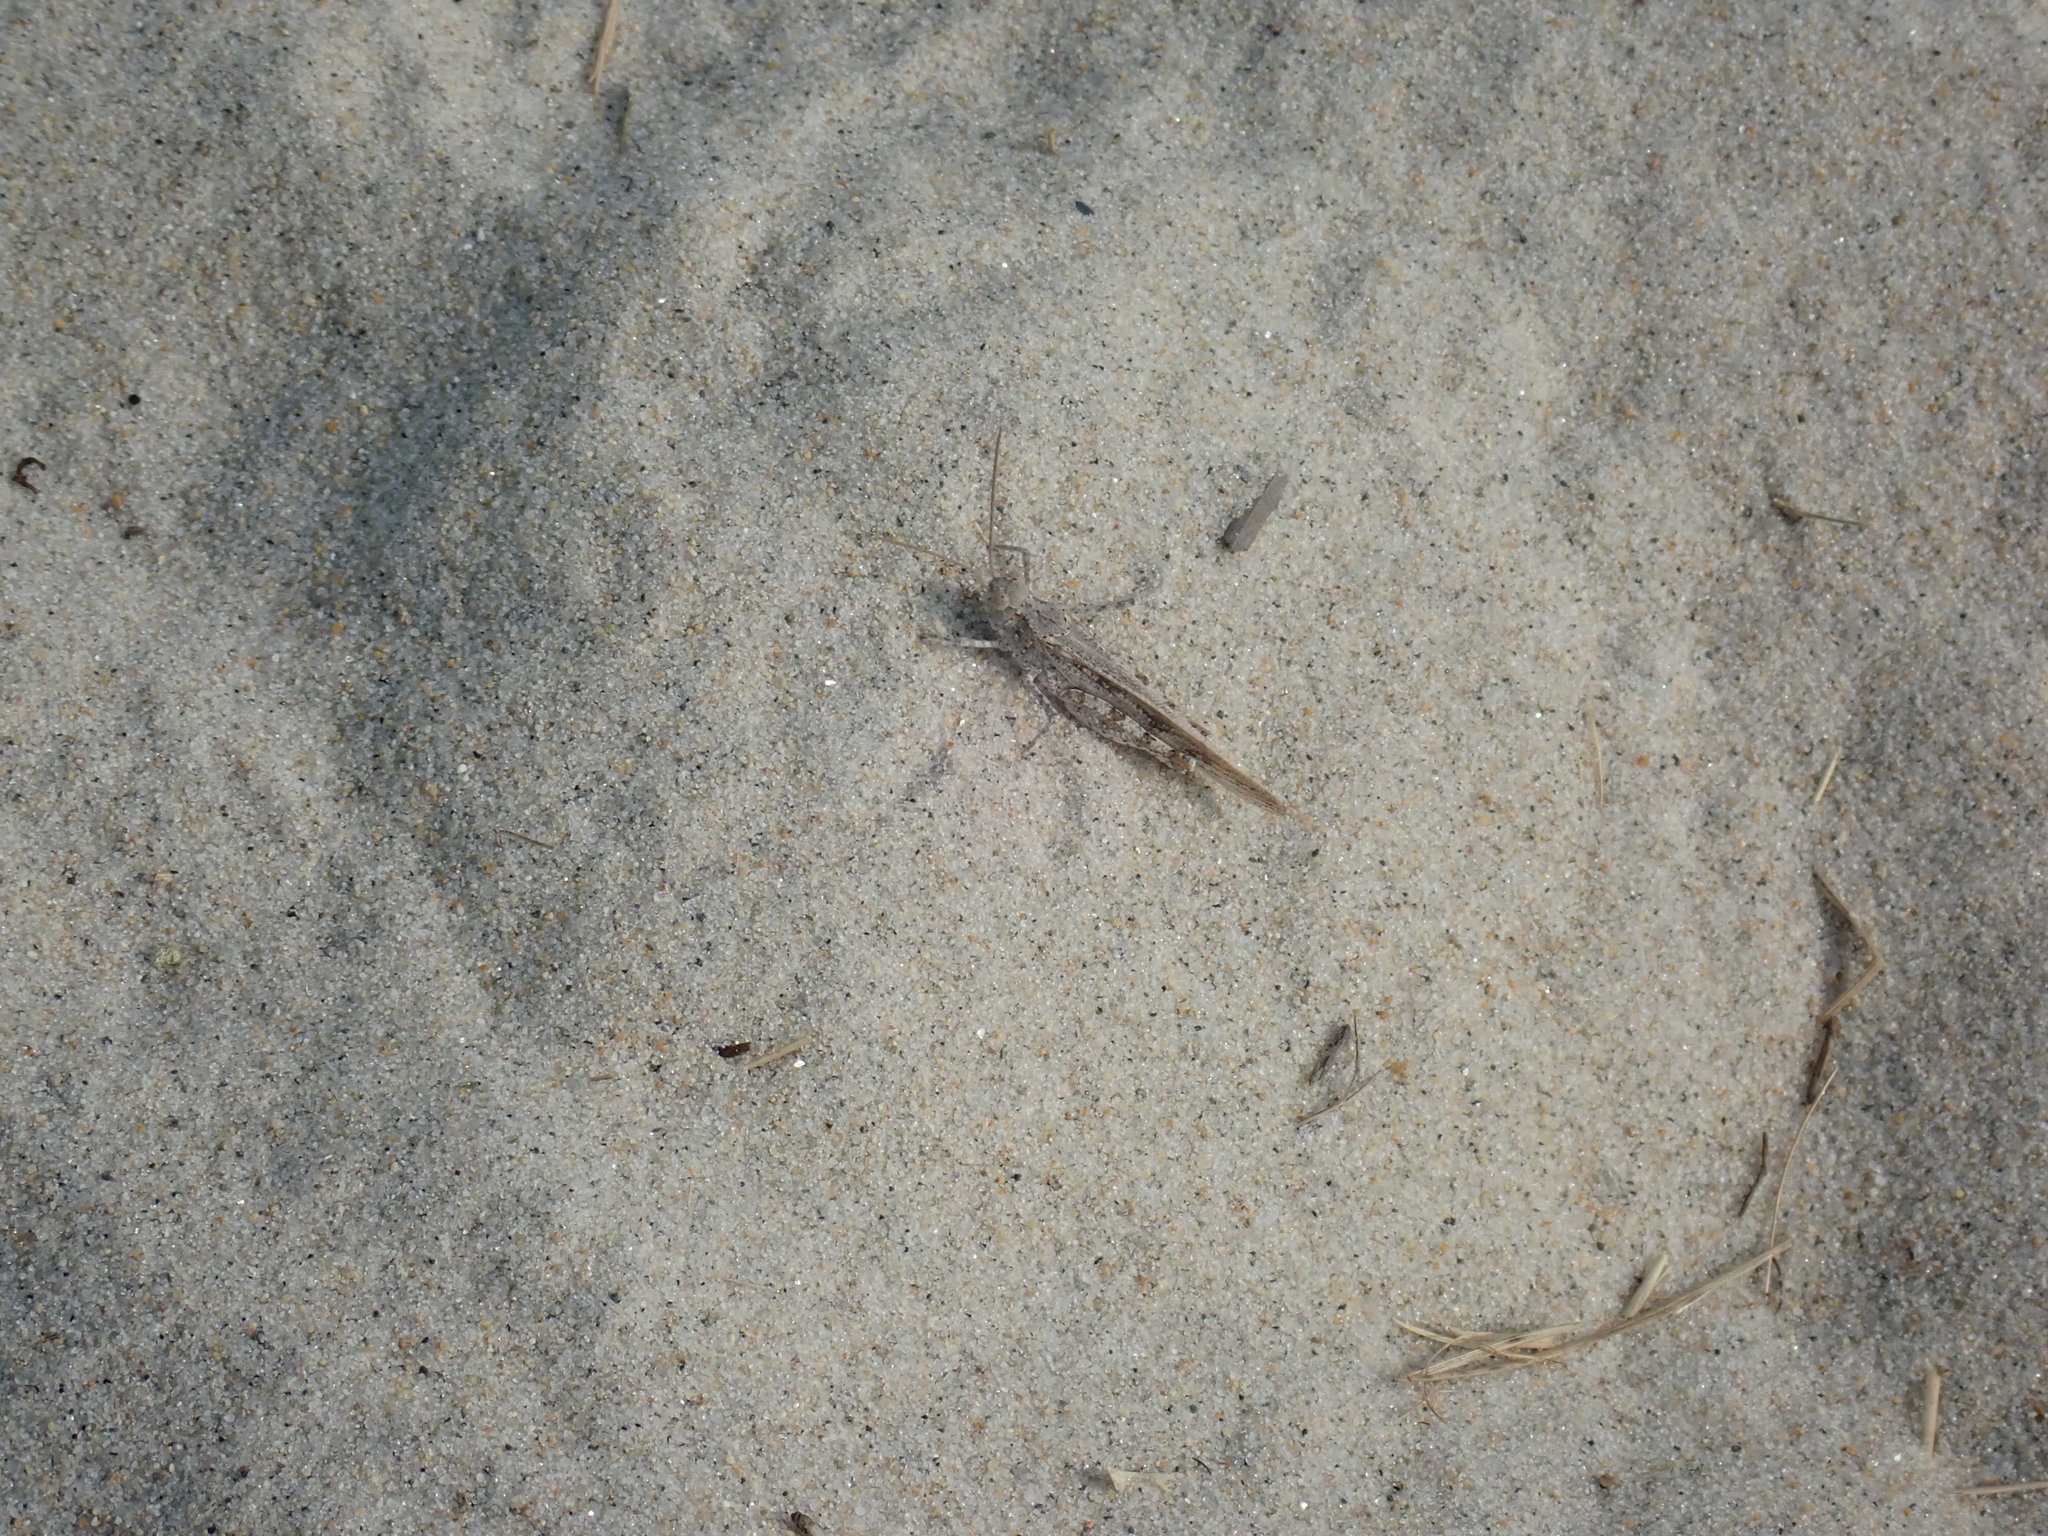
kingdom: Animalia
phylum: Arthropoda
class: Insecta
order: Orthoptera
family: Acrididae
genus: Trimerotropis
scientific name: Trimerotropis maritima
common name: Seaside locust
